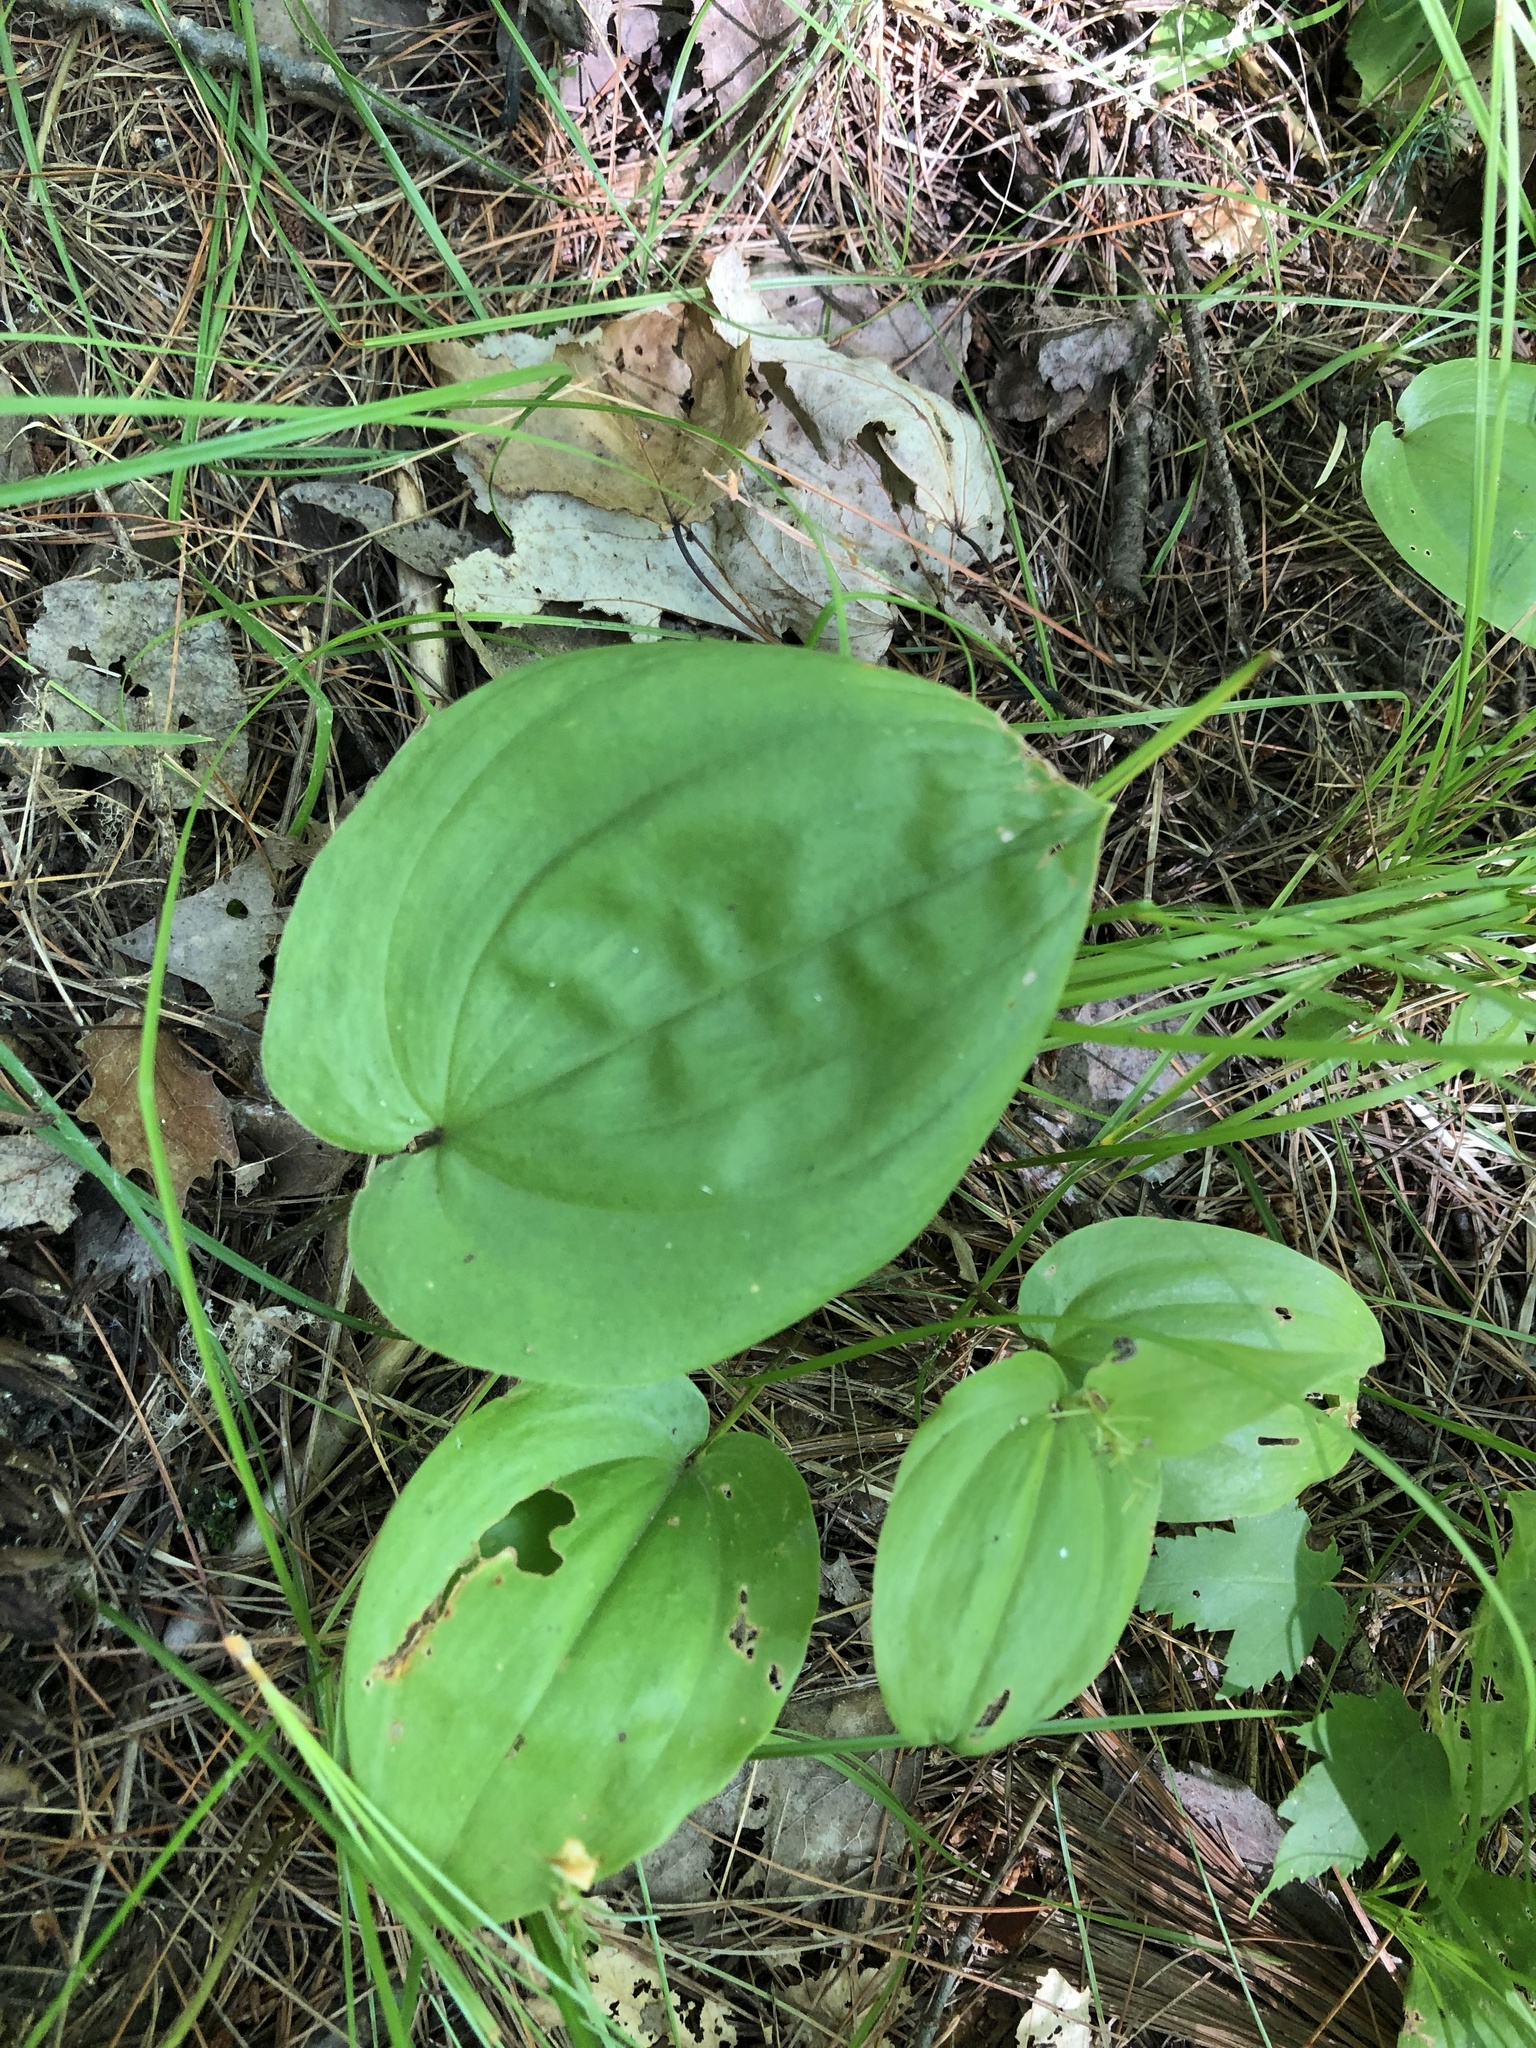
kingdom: Plantae
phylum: Tracheophyta
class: Liliopsida
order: Asparagales
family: Asparagaceae
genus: Maianthemum
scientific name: Maianthemum canadense
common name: False lily-of-the-valley
